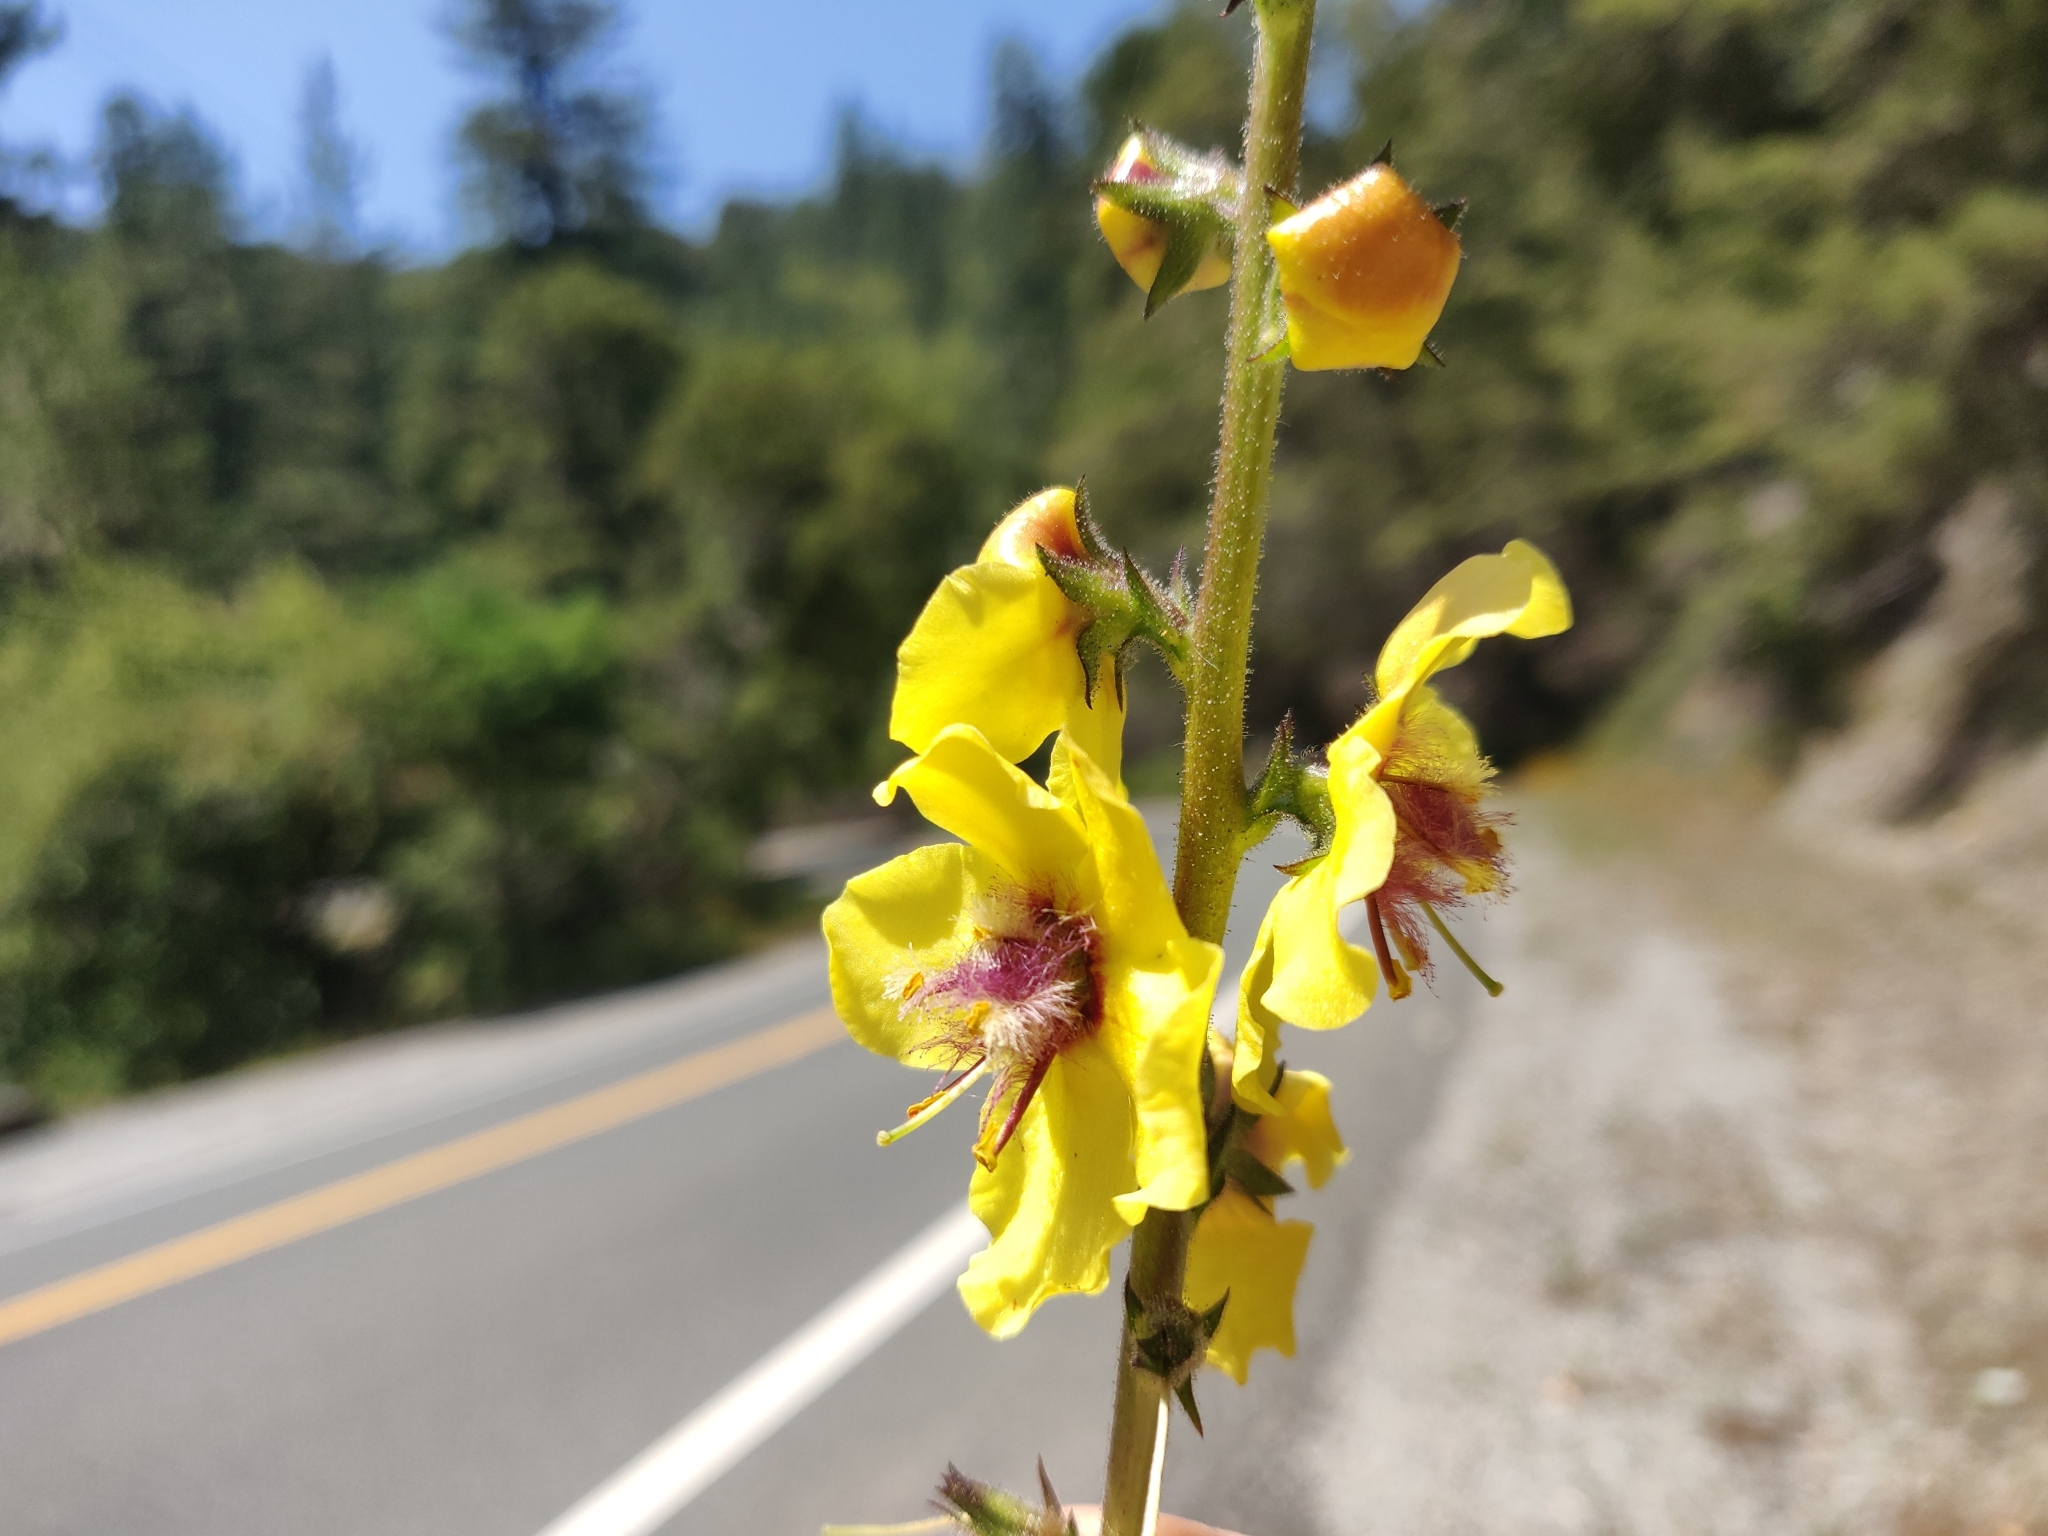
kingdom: Plantae
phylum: Tracheophyta
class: Magnoliopsida
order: Lamiales
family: Scrophulariaceae
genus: Verbascum
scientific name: Verbascum virgatum
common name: Twiggy mullein
